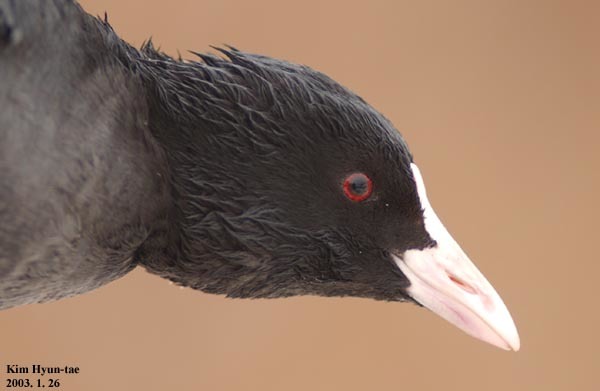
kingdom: Animalia
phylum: Chordata
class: Aves
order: Gruiformes
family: Rallidae
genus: Fulica
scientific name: Fulica atra
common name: Eurasian coot
